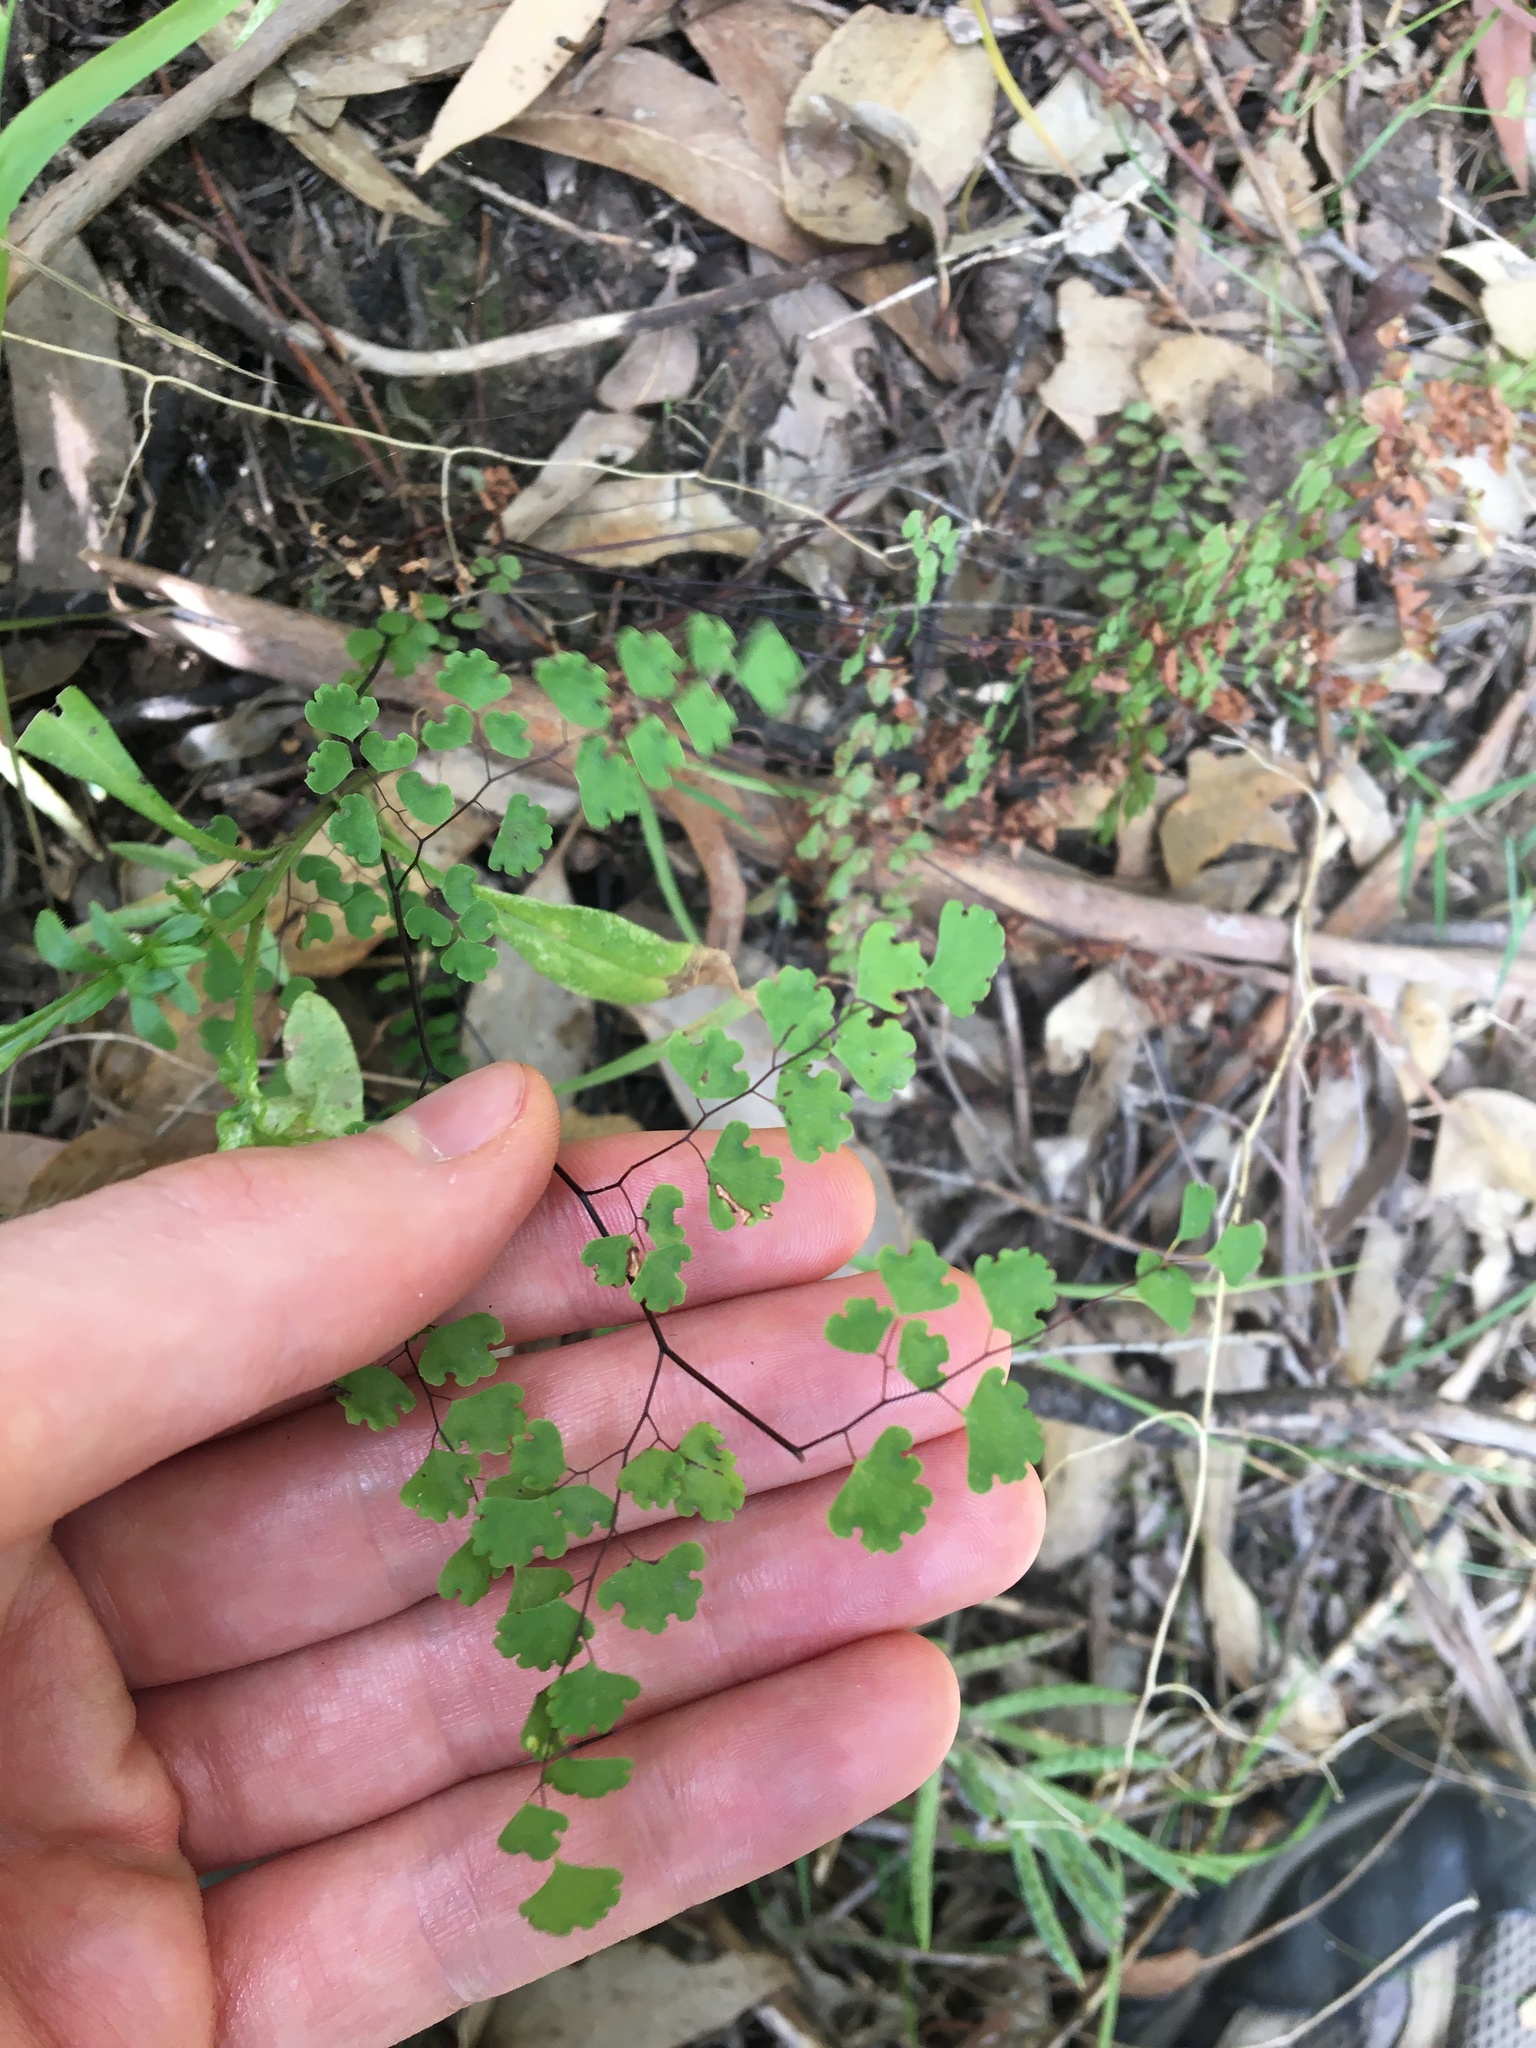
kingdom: Plantae
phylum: Tracheophyta
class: Polypodiopsida
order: Polypodiales
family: Pteridaceae
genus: Adiantum
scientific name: Adiantum aethiopicum
